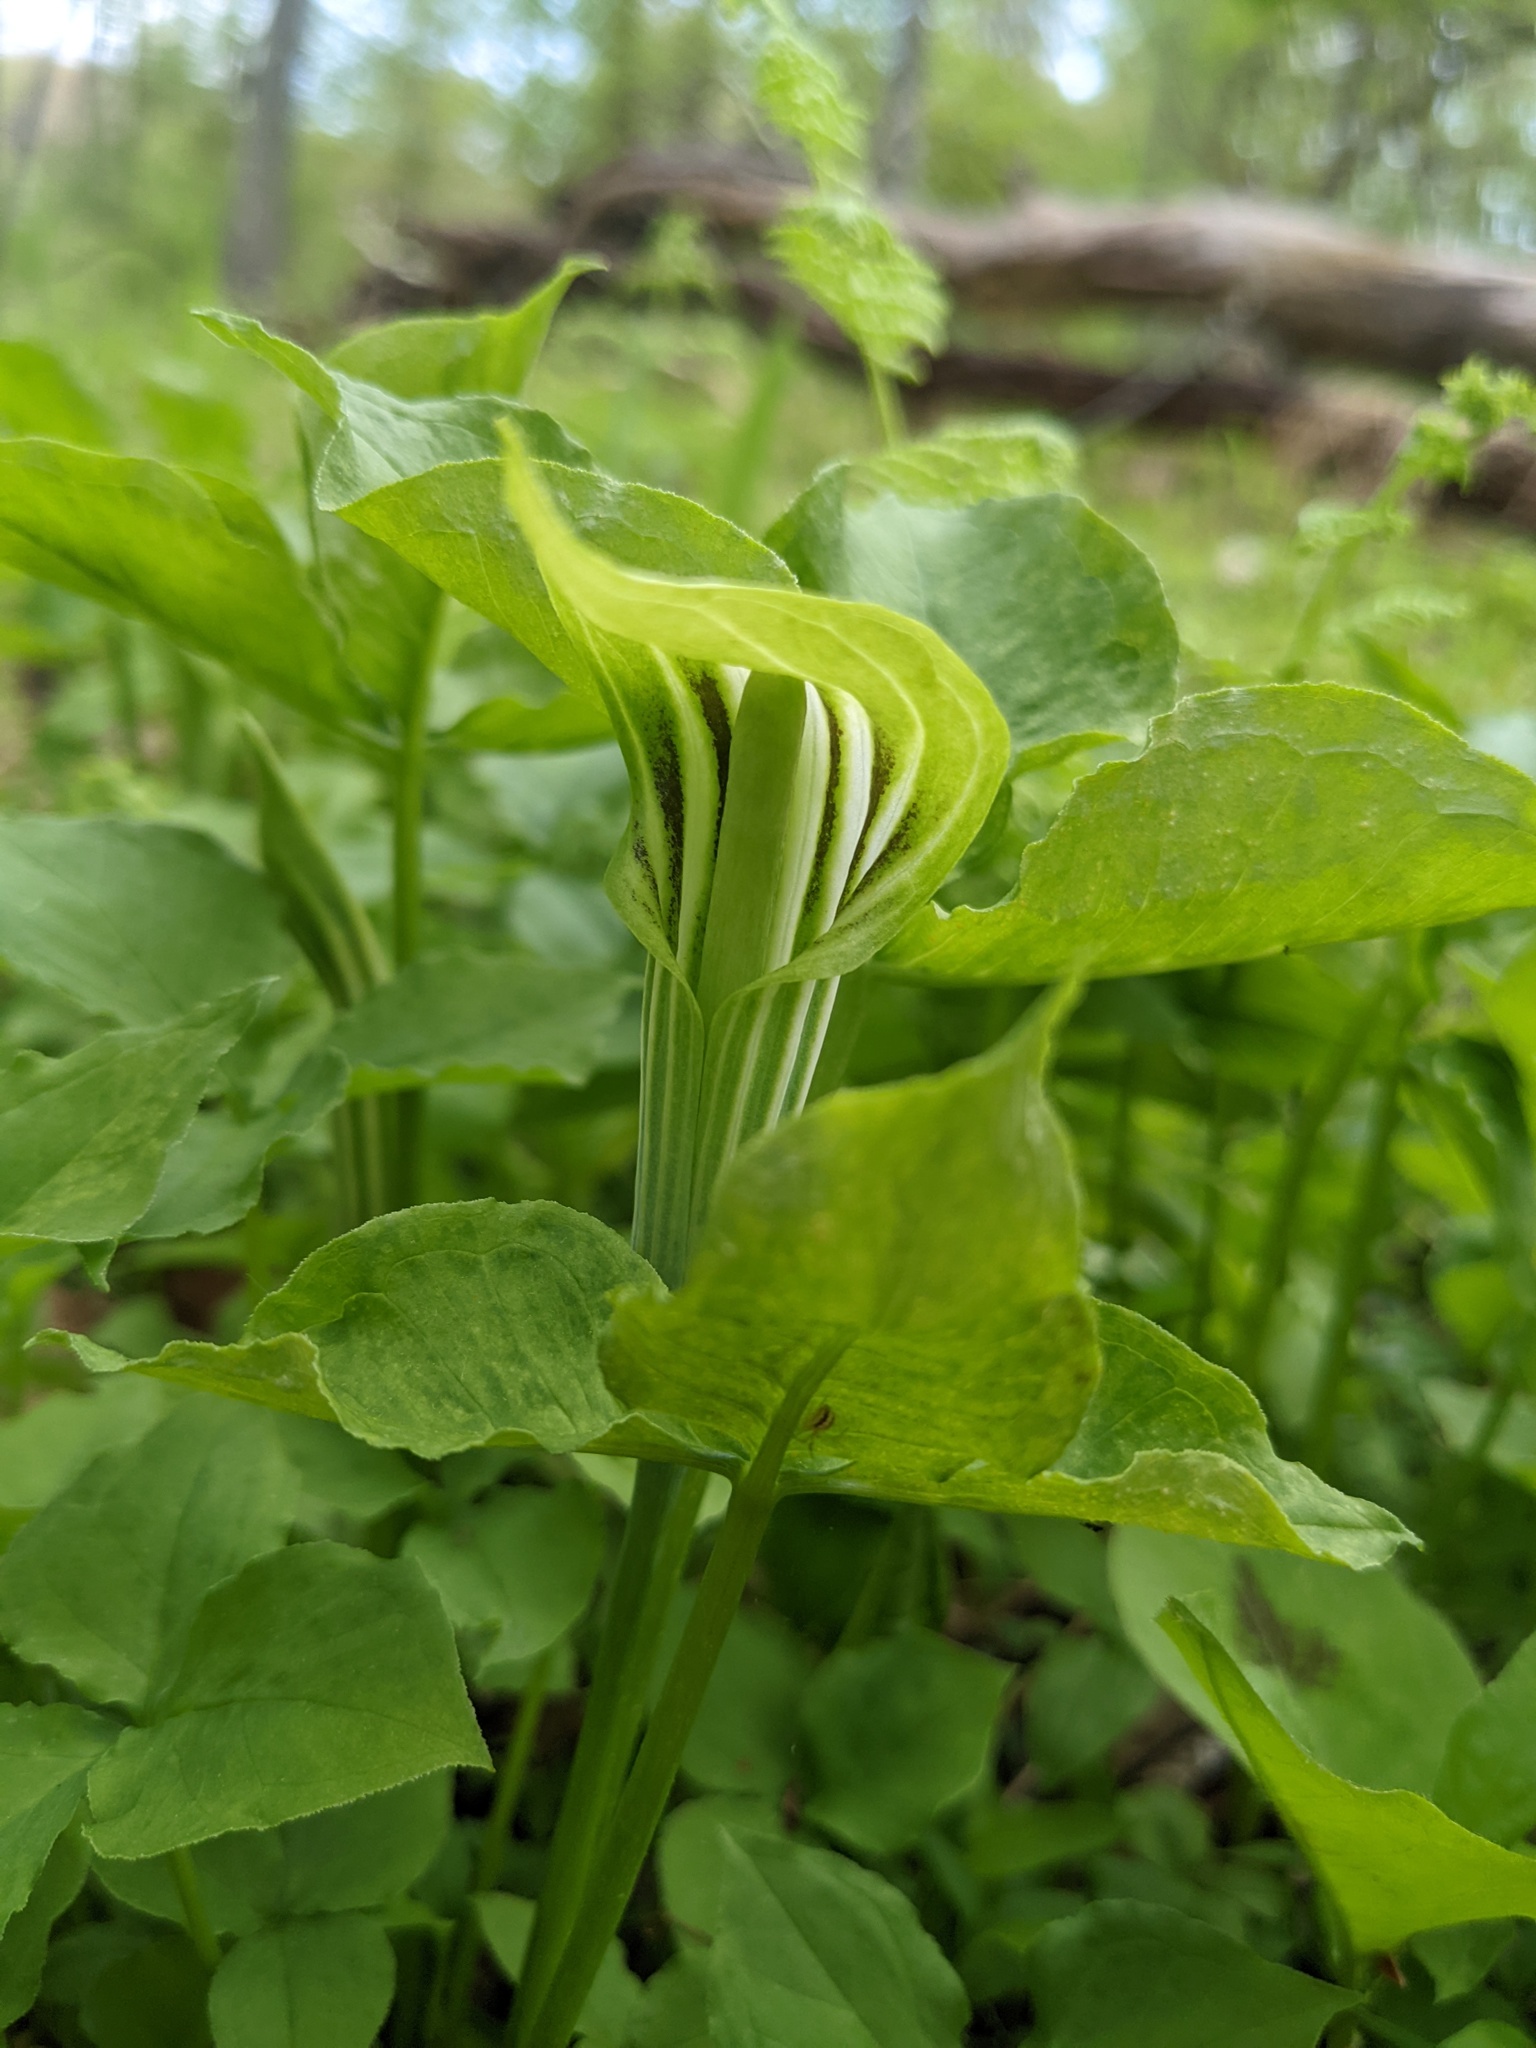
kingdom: Plantae
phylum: Tracheophyta
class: Liliopsida
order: Alismatales
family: Araceae
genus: Arisaema
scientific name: Arisaema stewardsonii
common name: Swamp jack-in-the-pulpit
